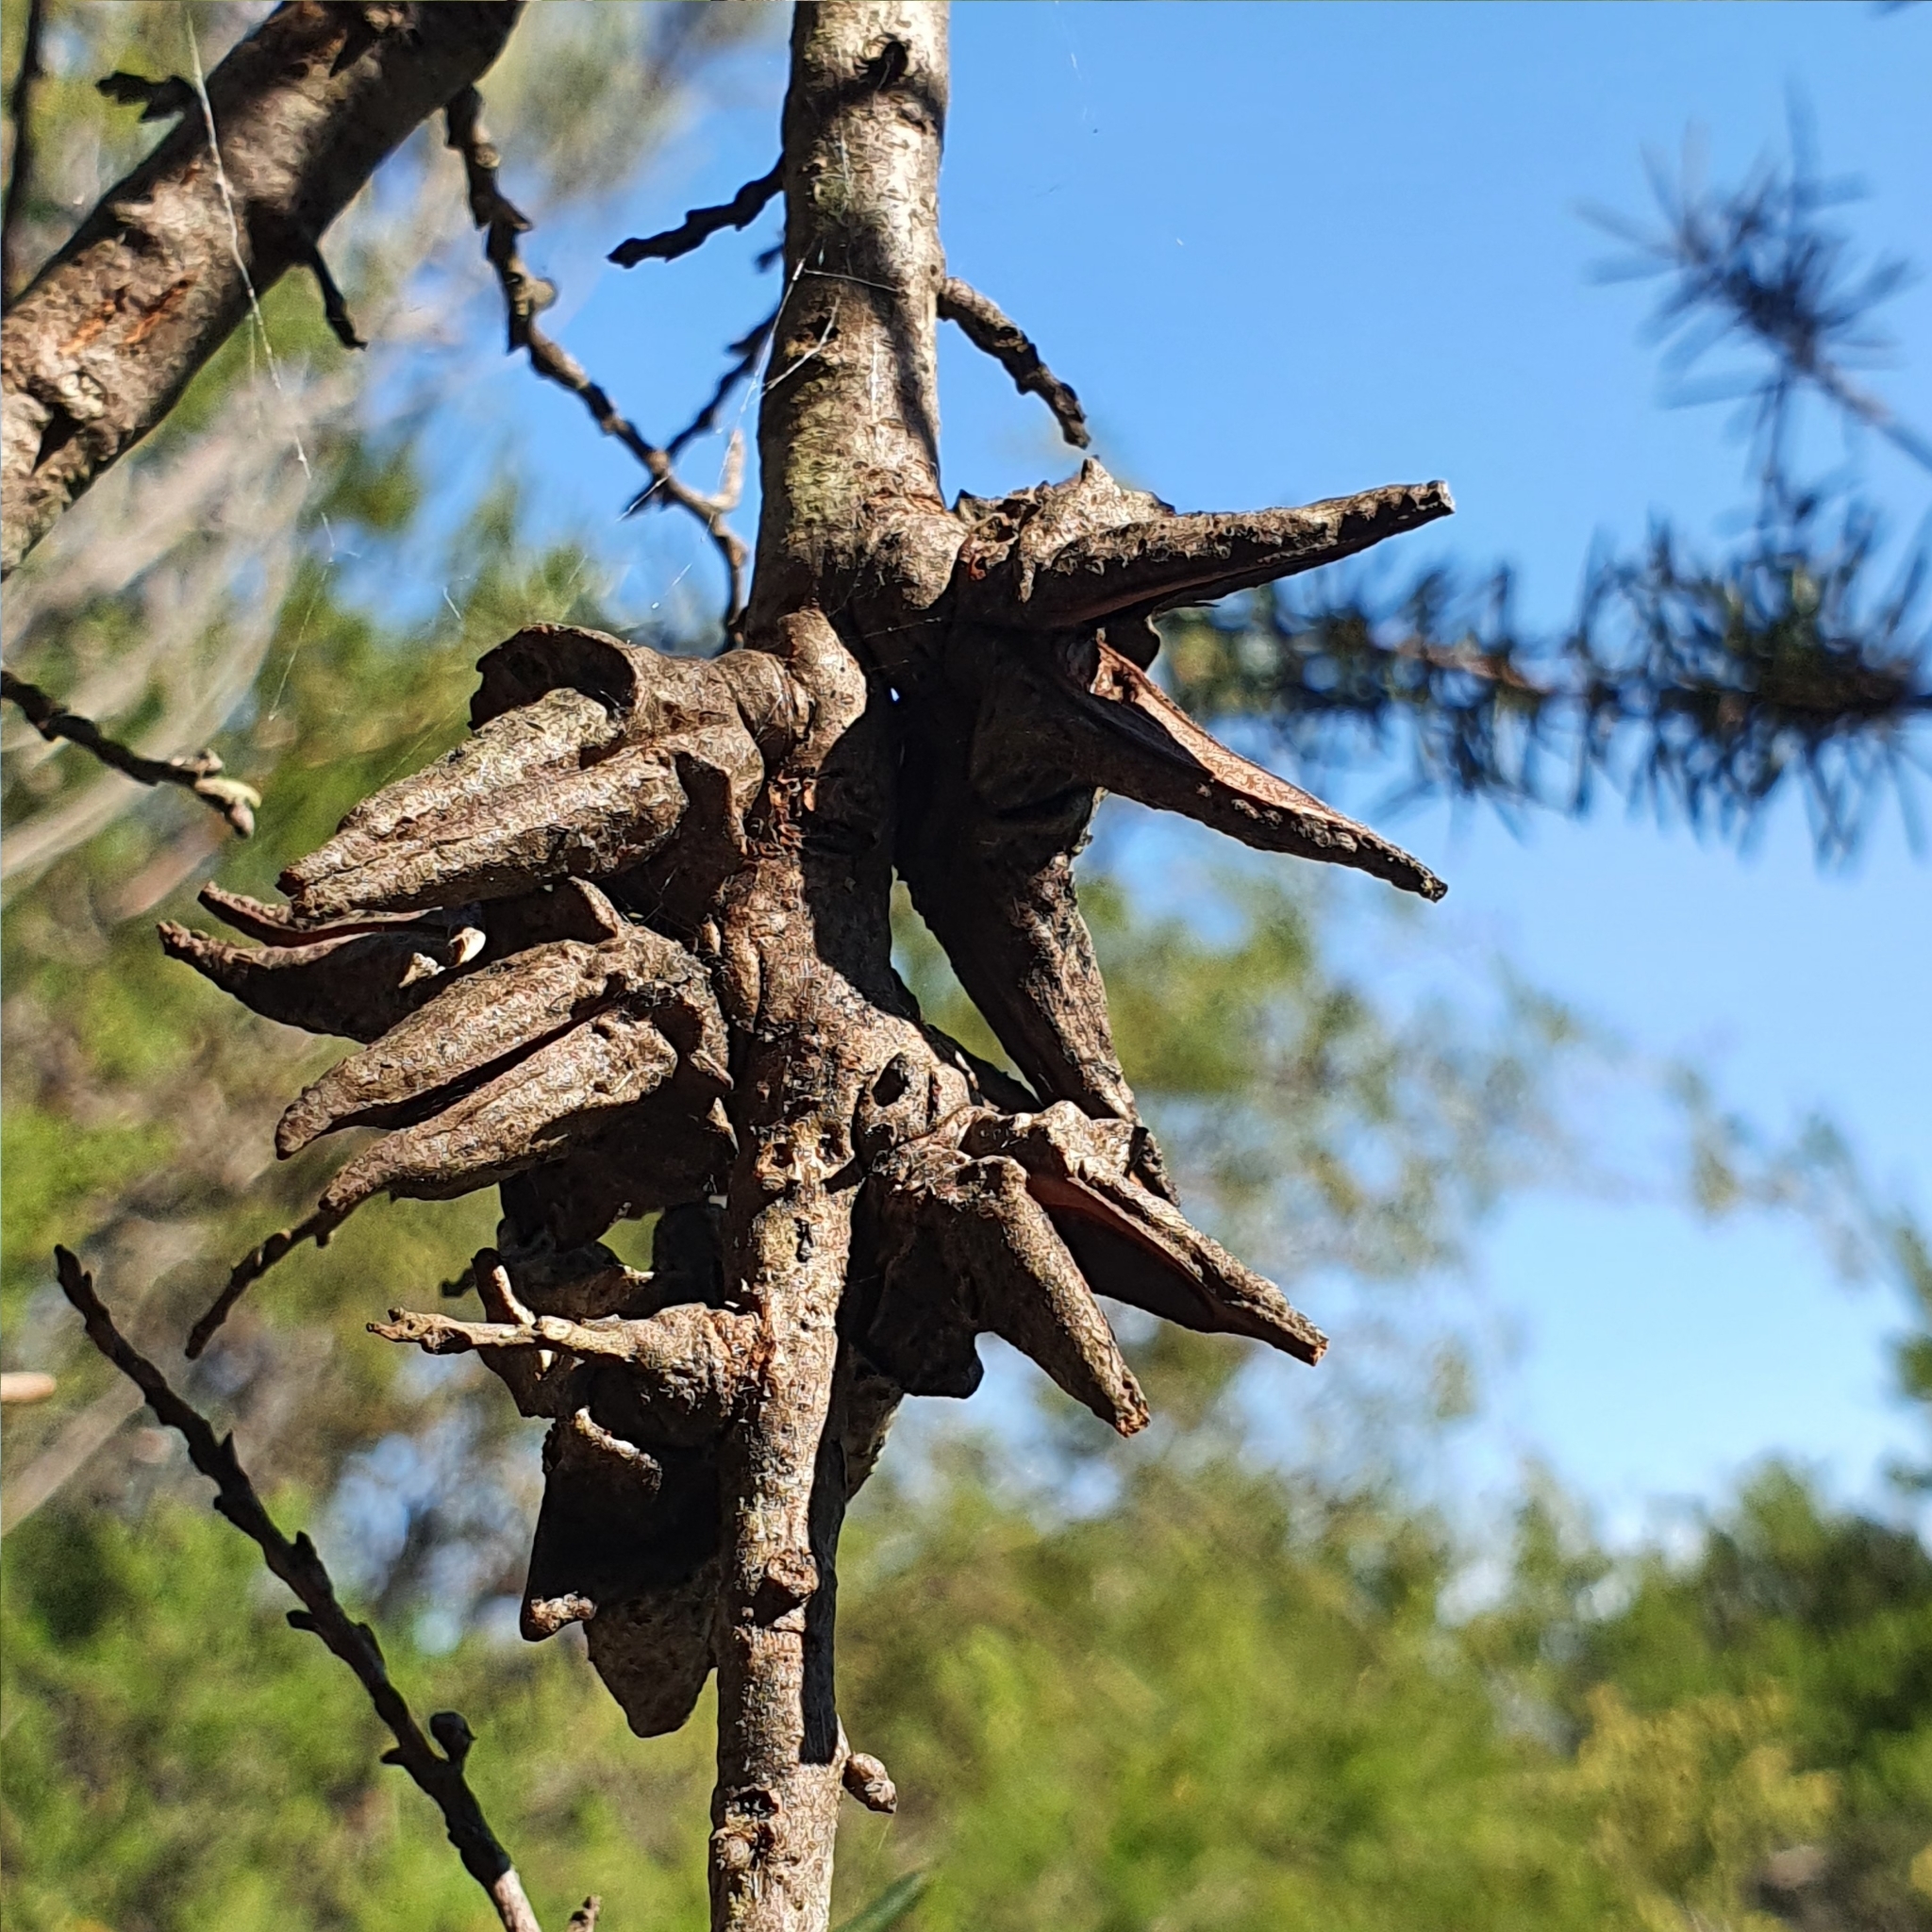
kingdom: Plantae
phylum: Tracheophyta
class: Magnoliopsida
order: Proteales
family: Proteaceae
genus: Hakea
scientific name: Hakea teretifolia
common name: Dagger hakea
